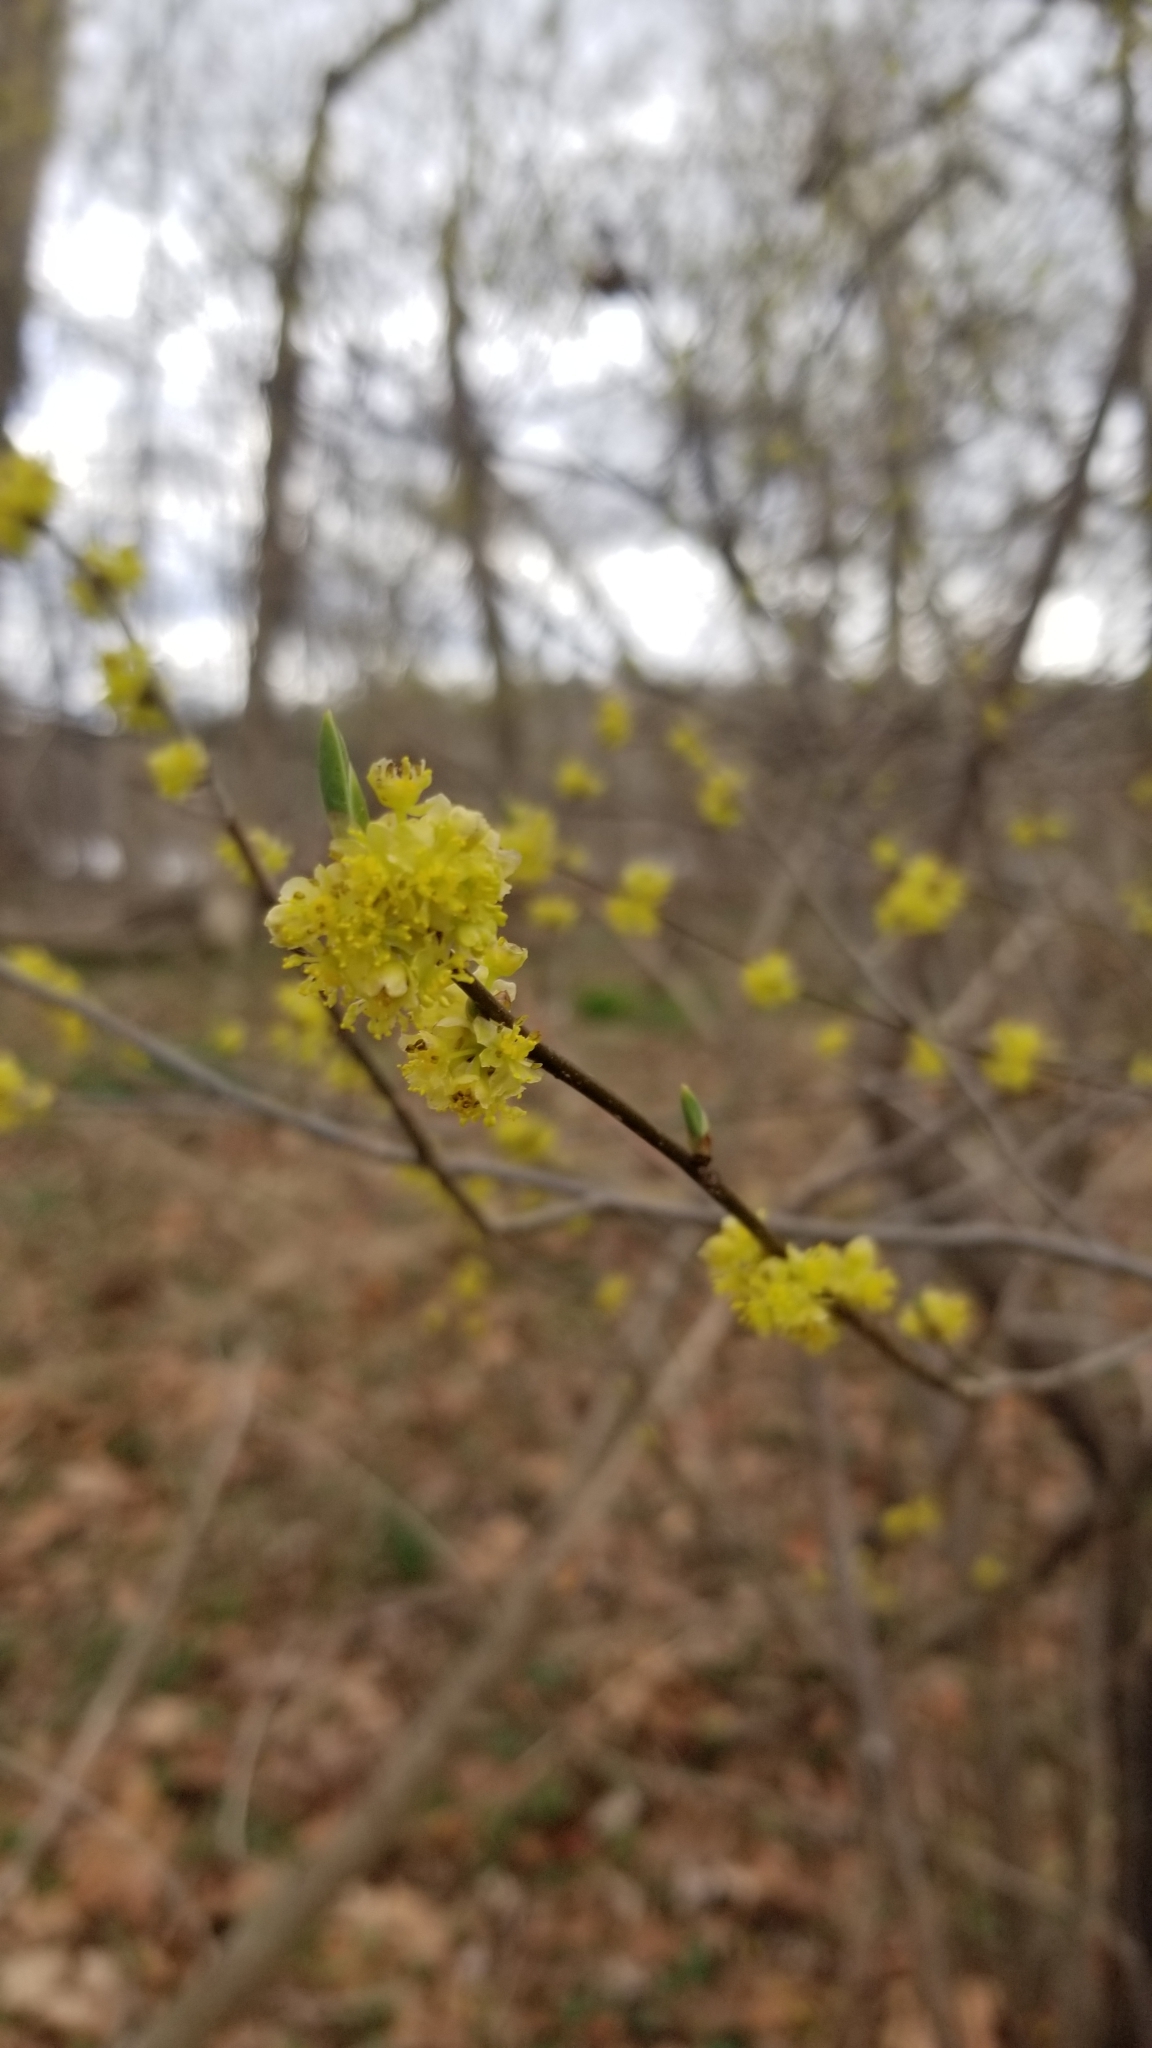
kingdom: Plantae
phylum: Tracheophyta
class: Magnoliopsida
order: Laurales
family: Lauraceae
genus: Lindera
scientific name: Lindera benzoin
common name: Spicebush
